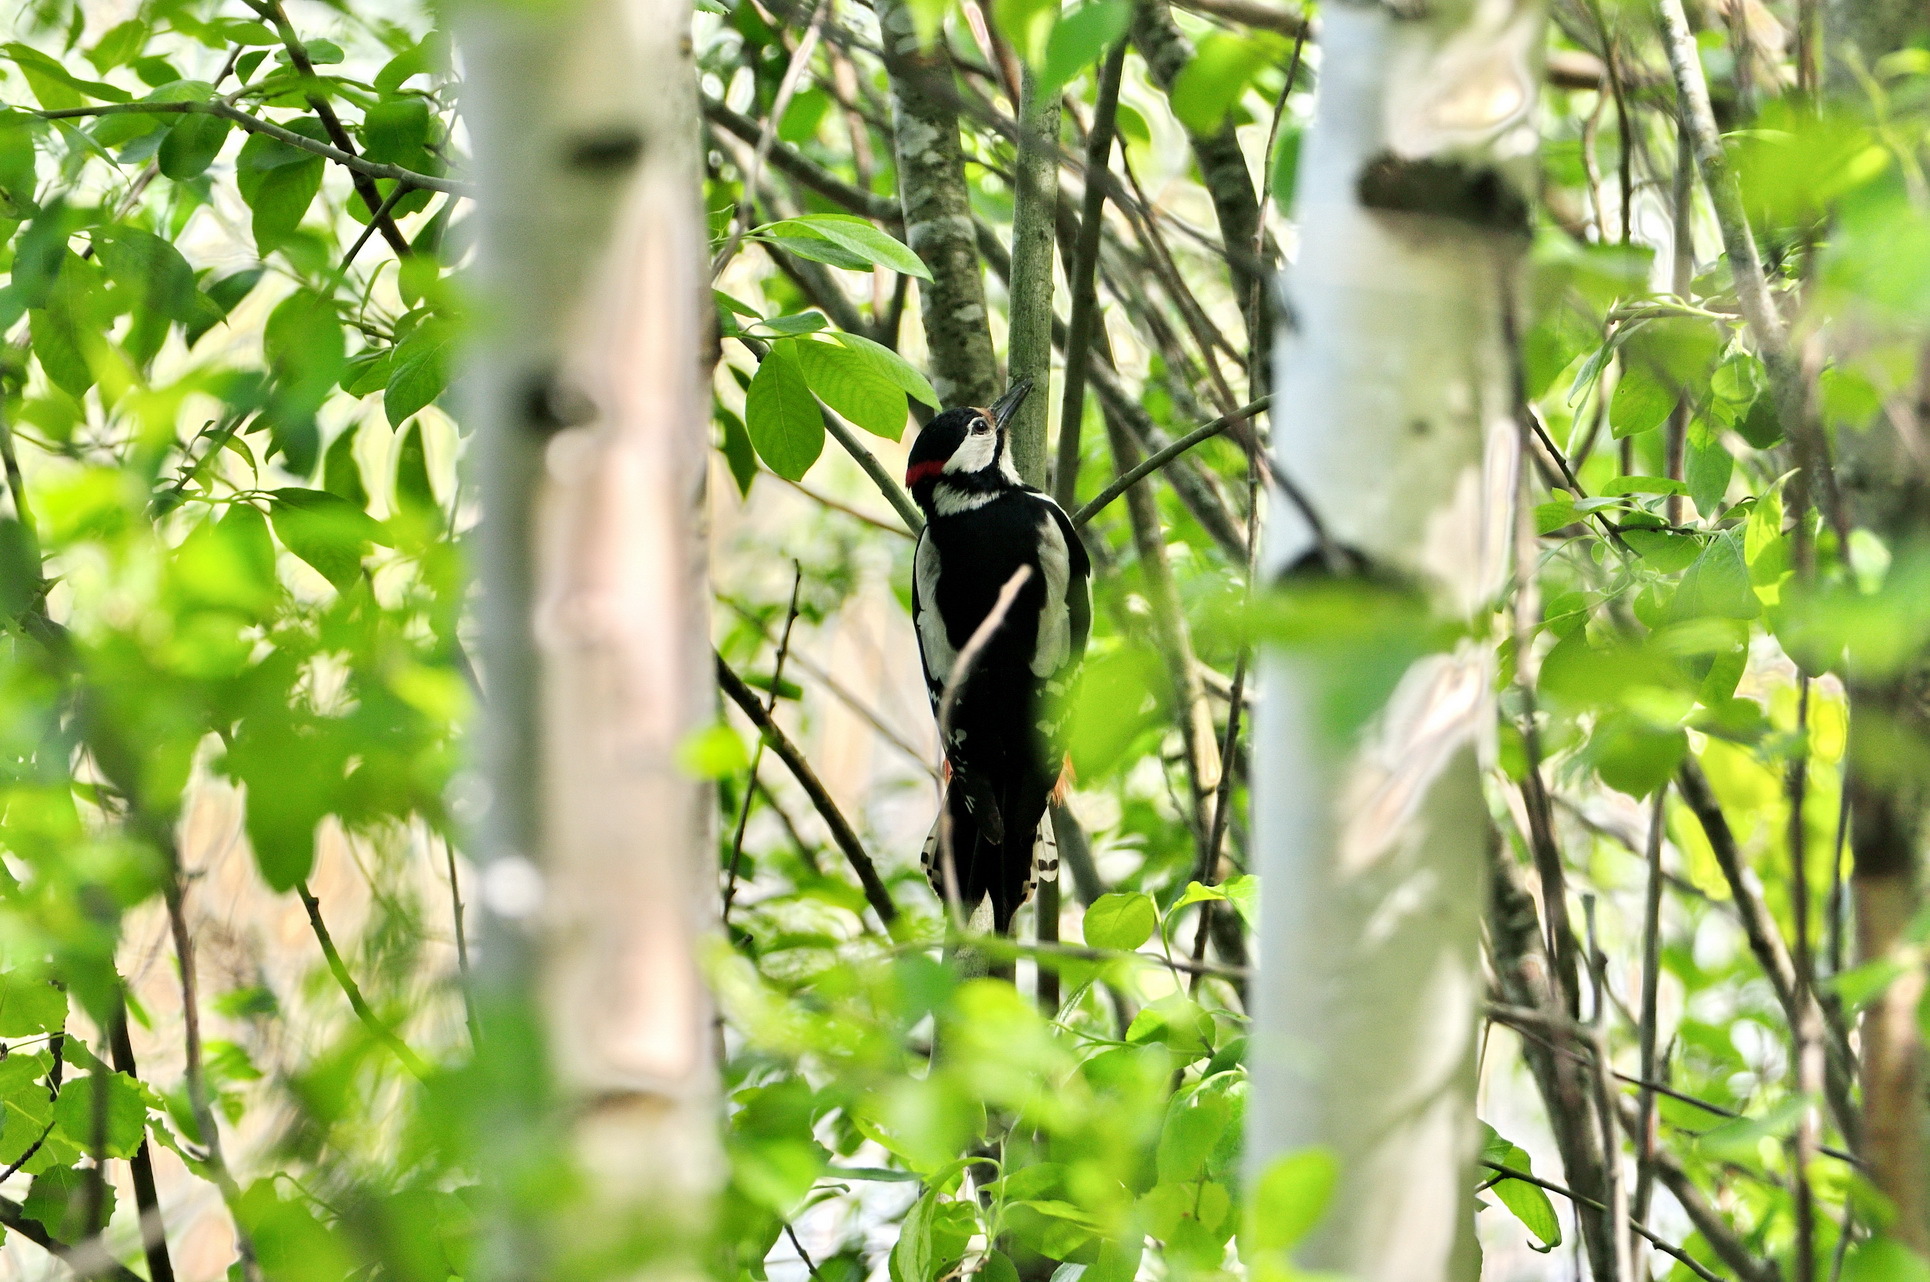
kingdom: Animalia
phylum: Chordata
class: Aves
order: Piciformes
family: Picidae
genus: Dendrocopos
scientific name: Dendrocopos major
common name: Great spotted woodpecker
